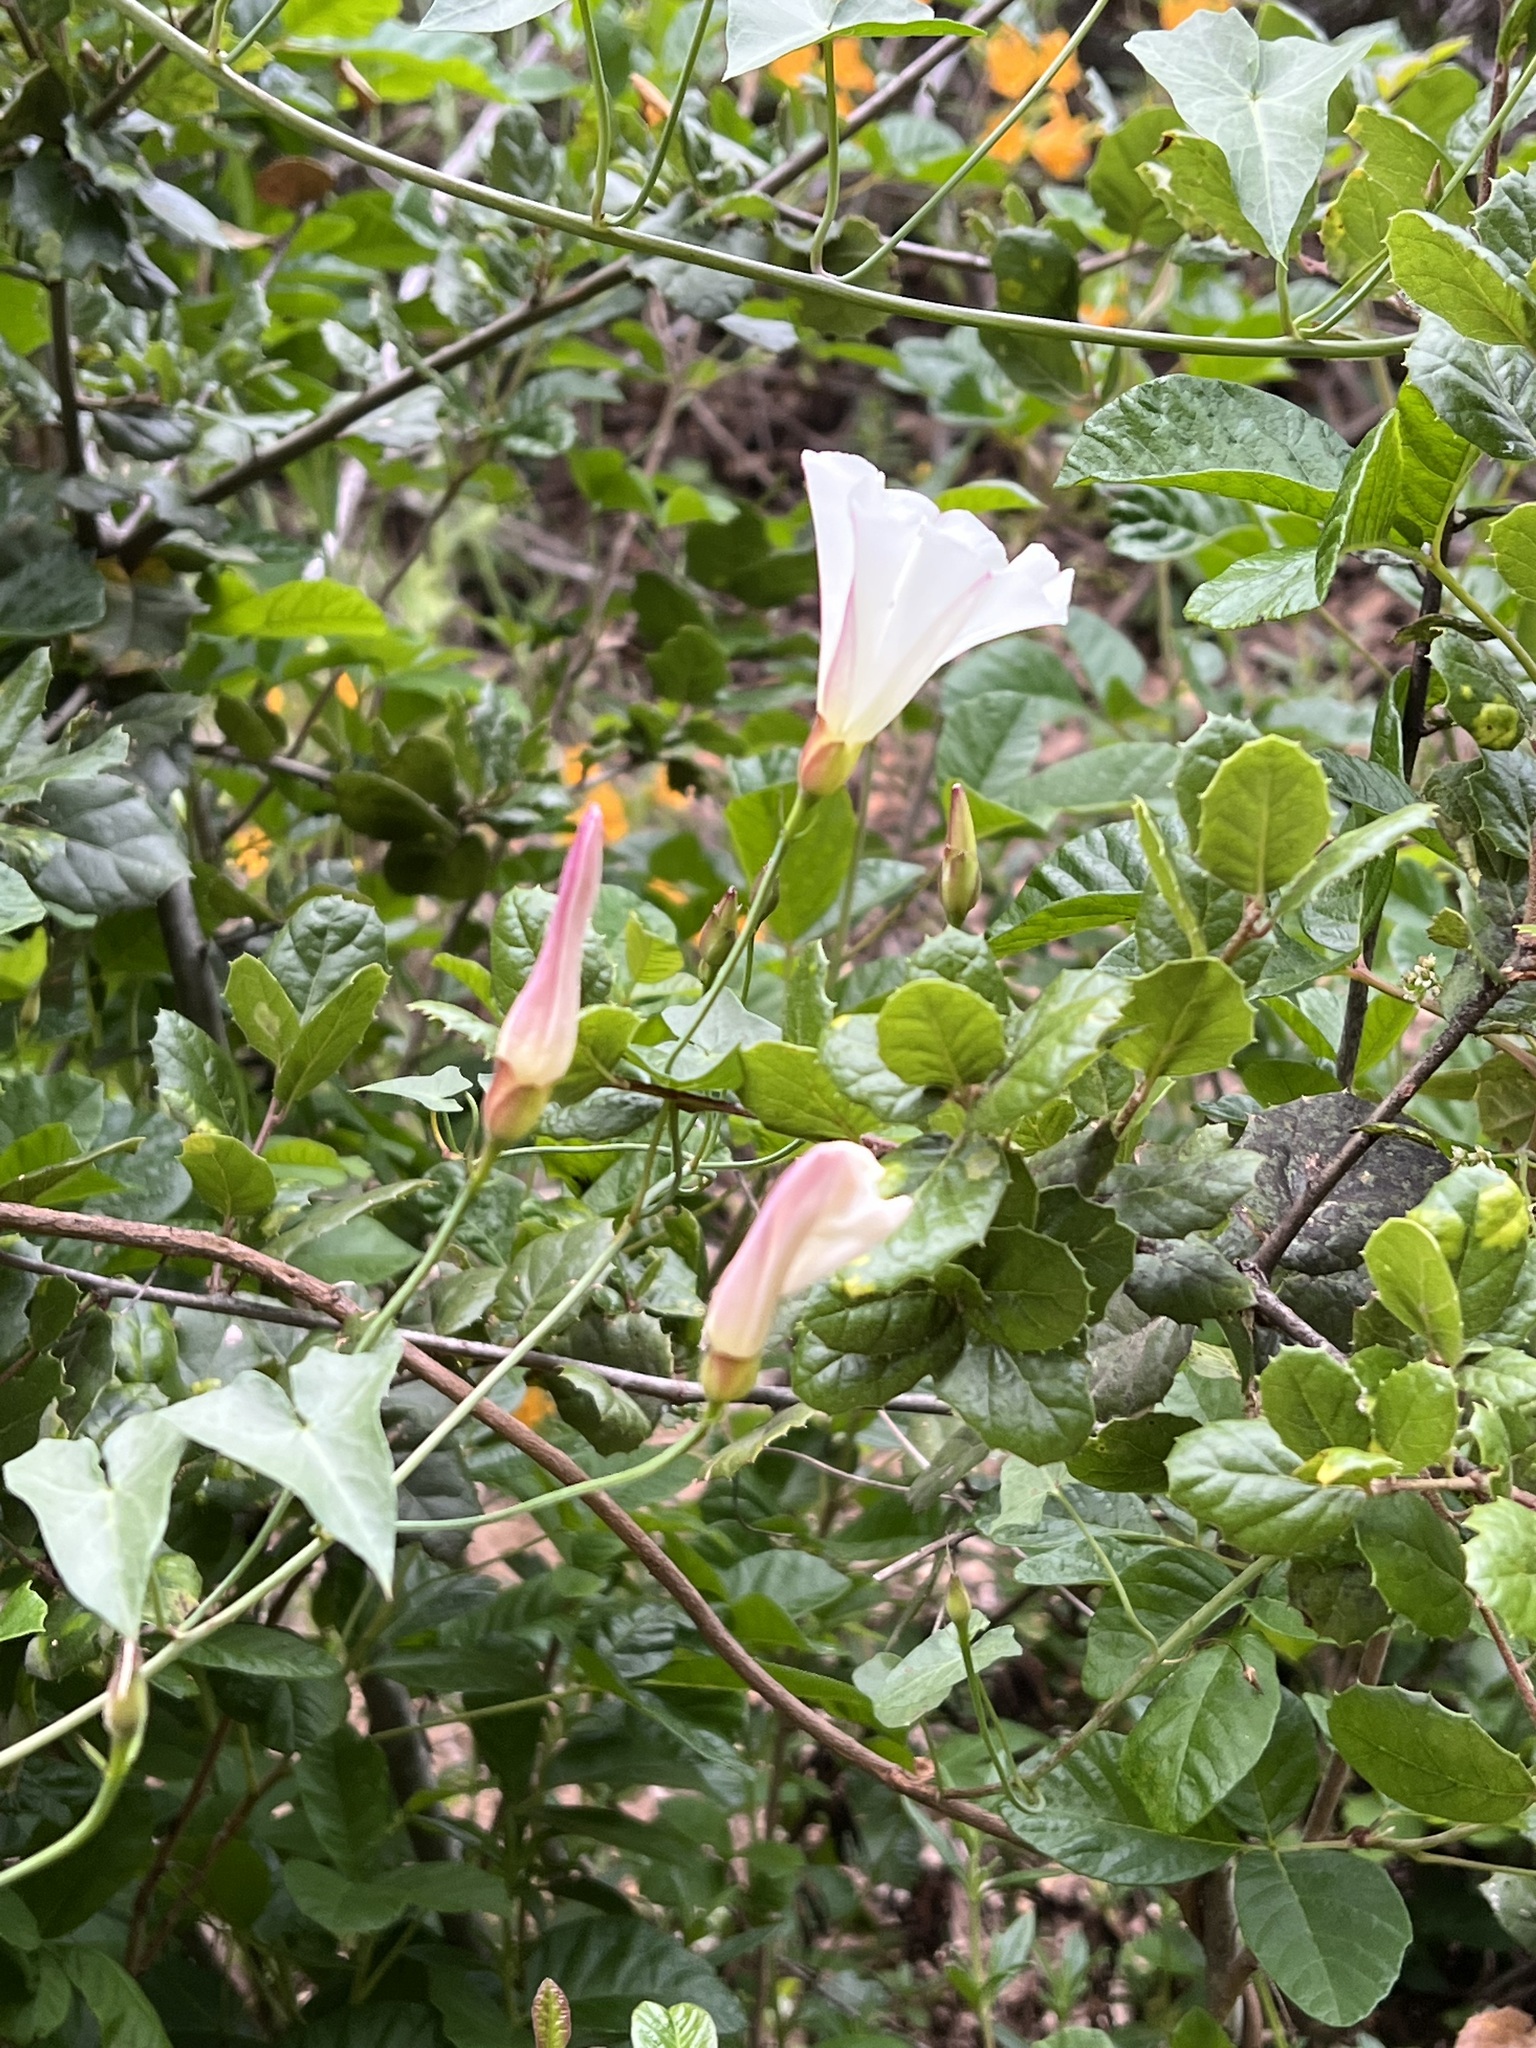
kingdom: Plantae
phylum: Tracheophyta
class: Magnoliopsida
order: Solanales
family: Convolvulaceae
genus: Calystegia
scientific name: Calystegia purpurata
